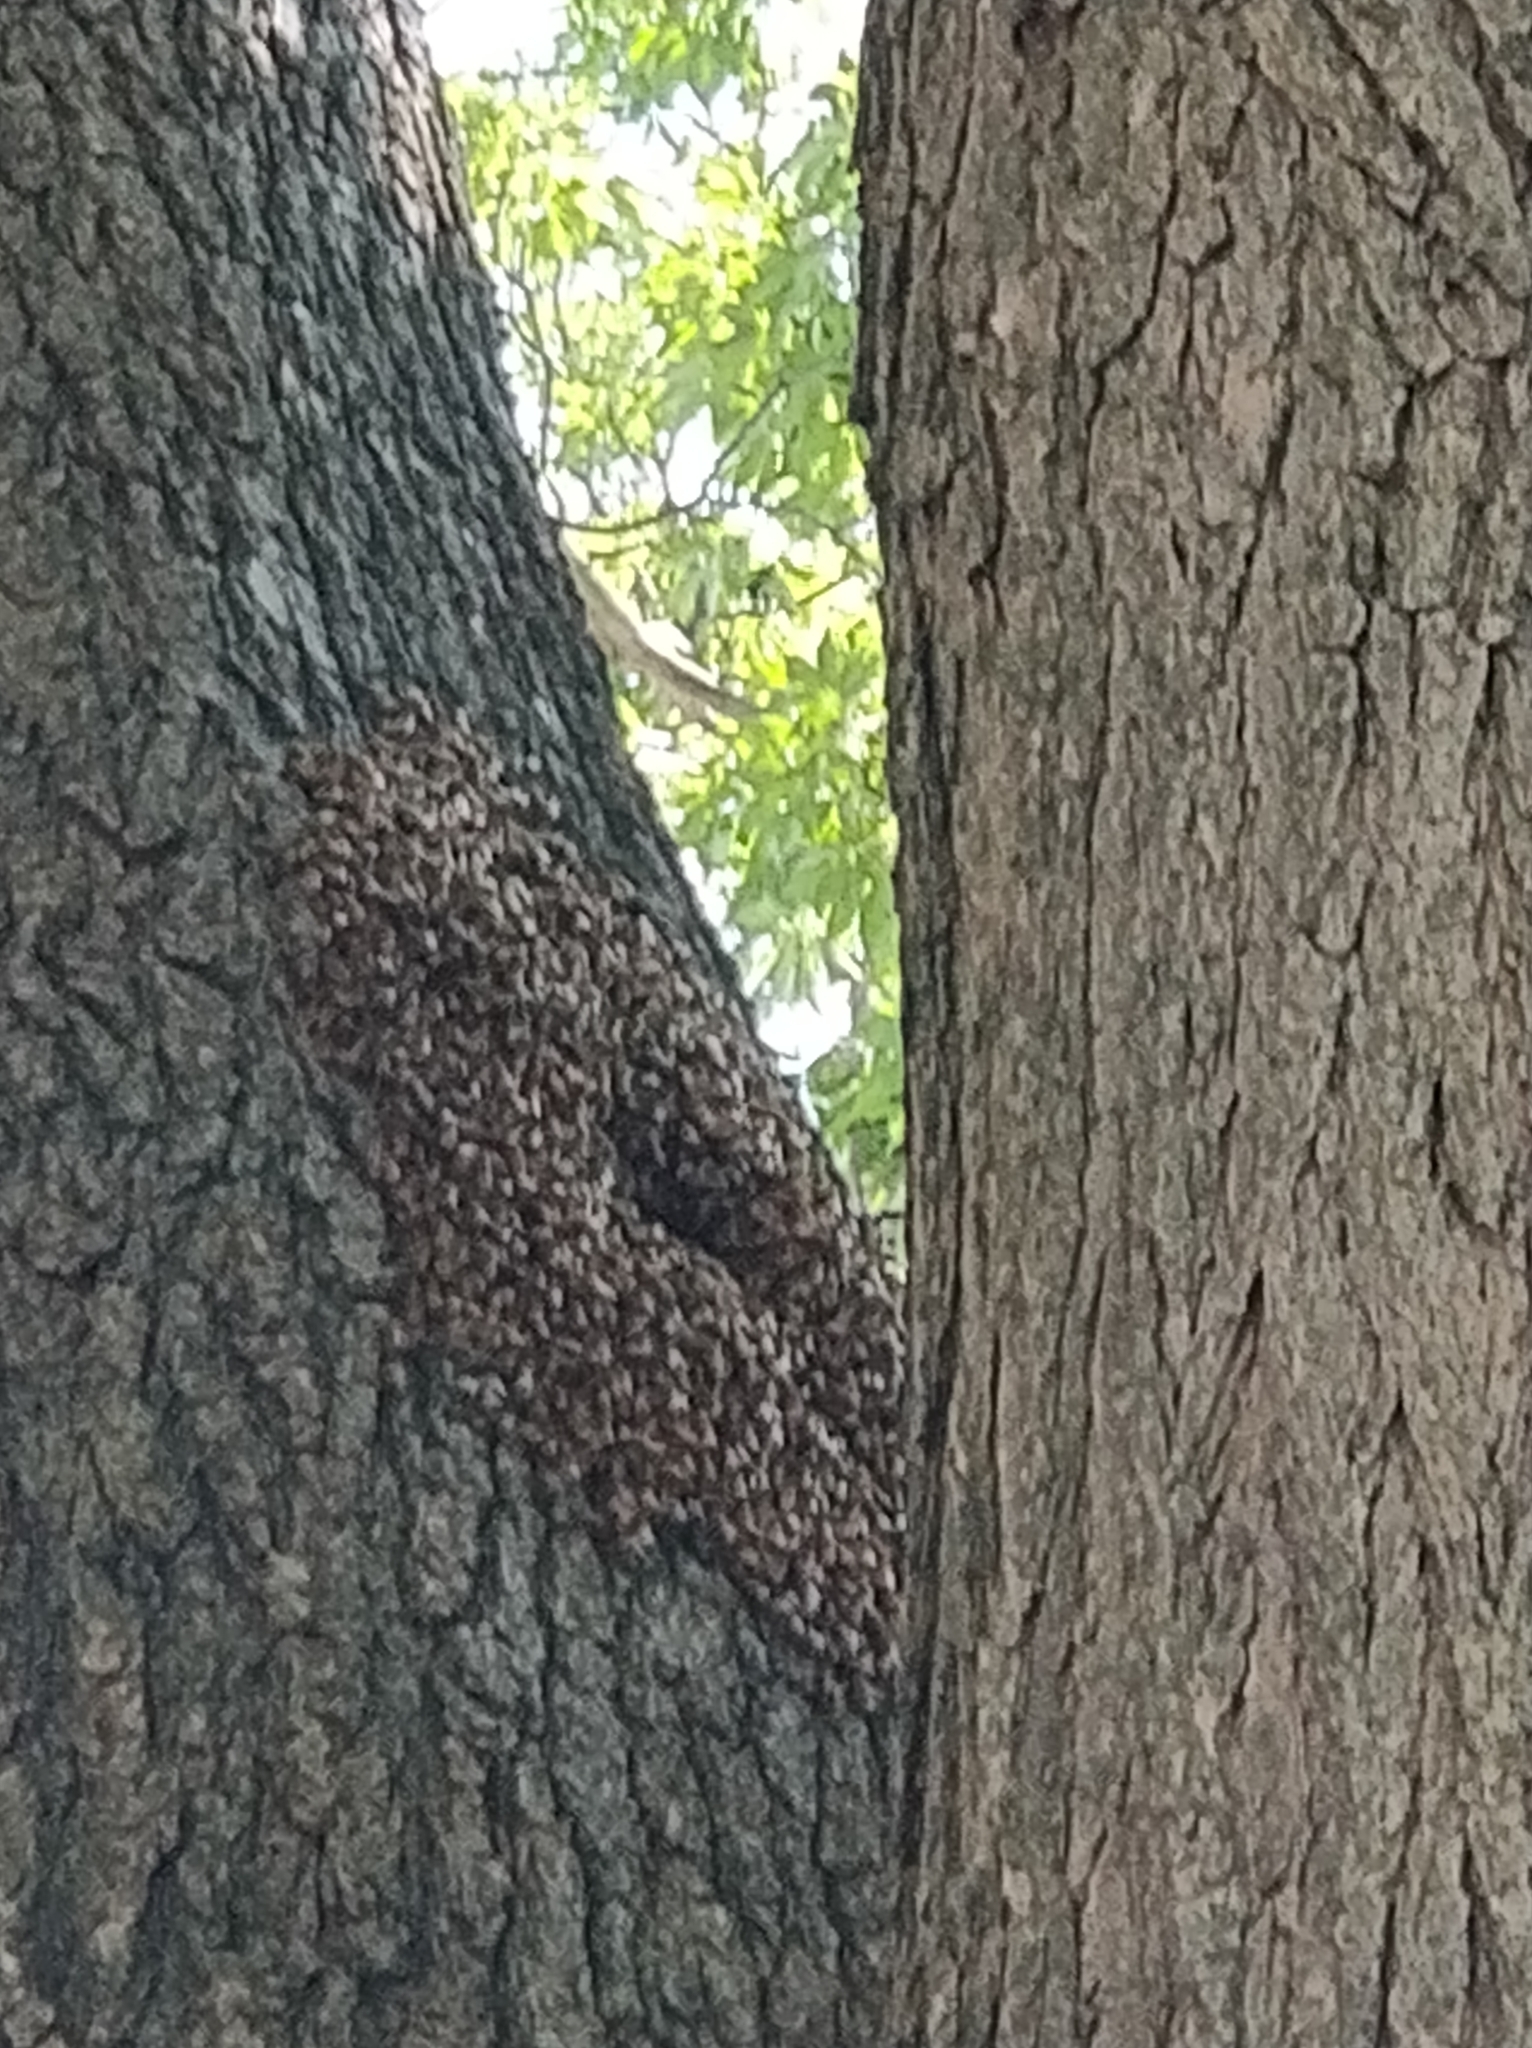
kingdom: Animalia
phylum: Arthropoda
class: Insecta
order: Hymenoptera
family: Apidae
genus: Apis
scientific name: Apis mellifera
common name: Honey bee
